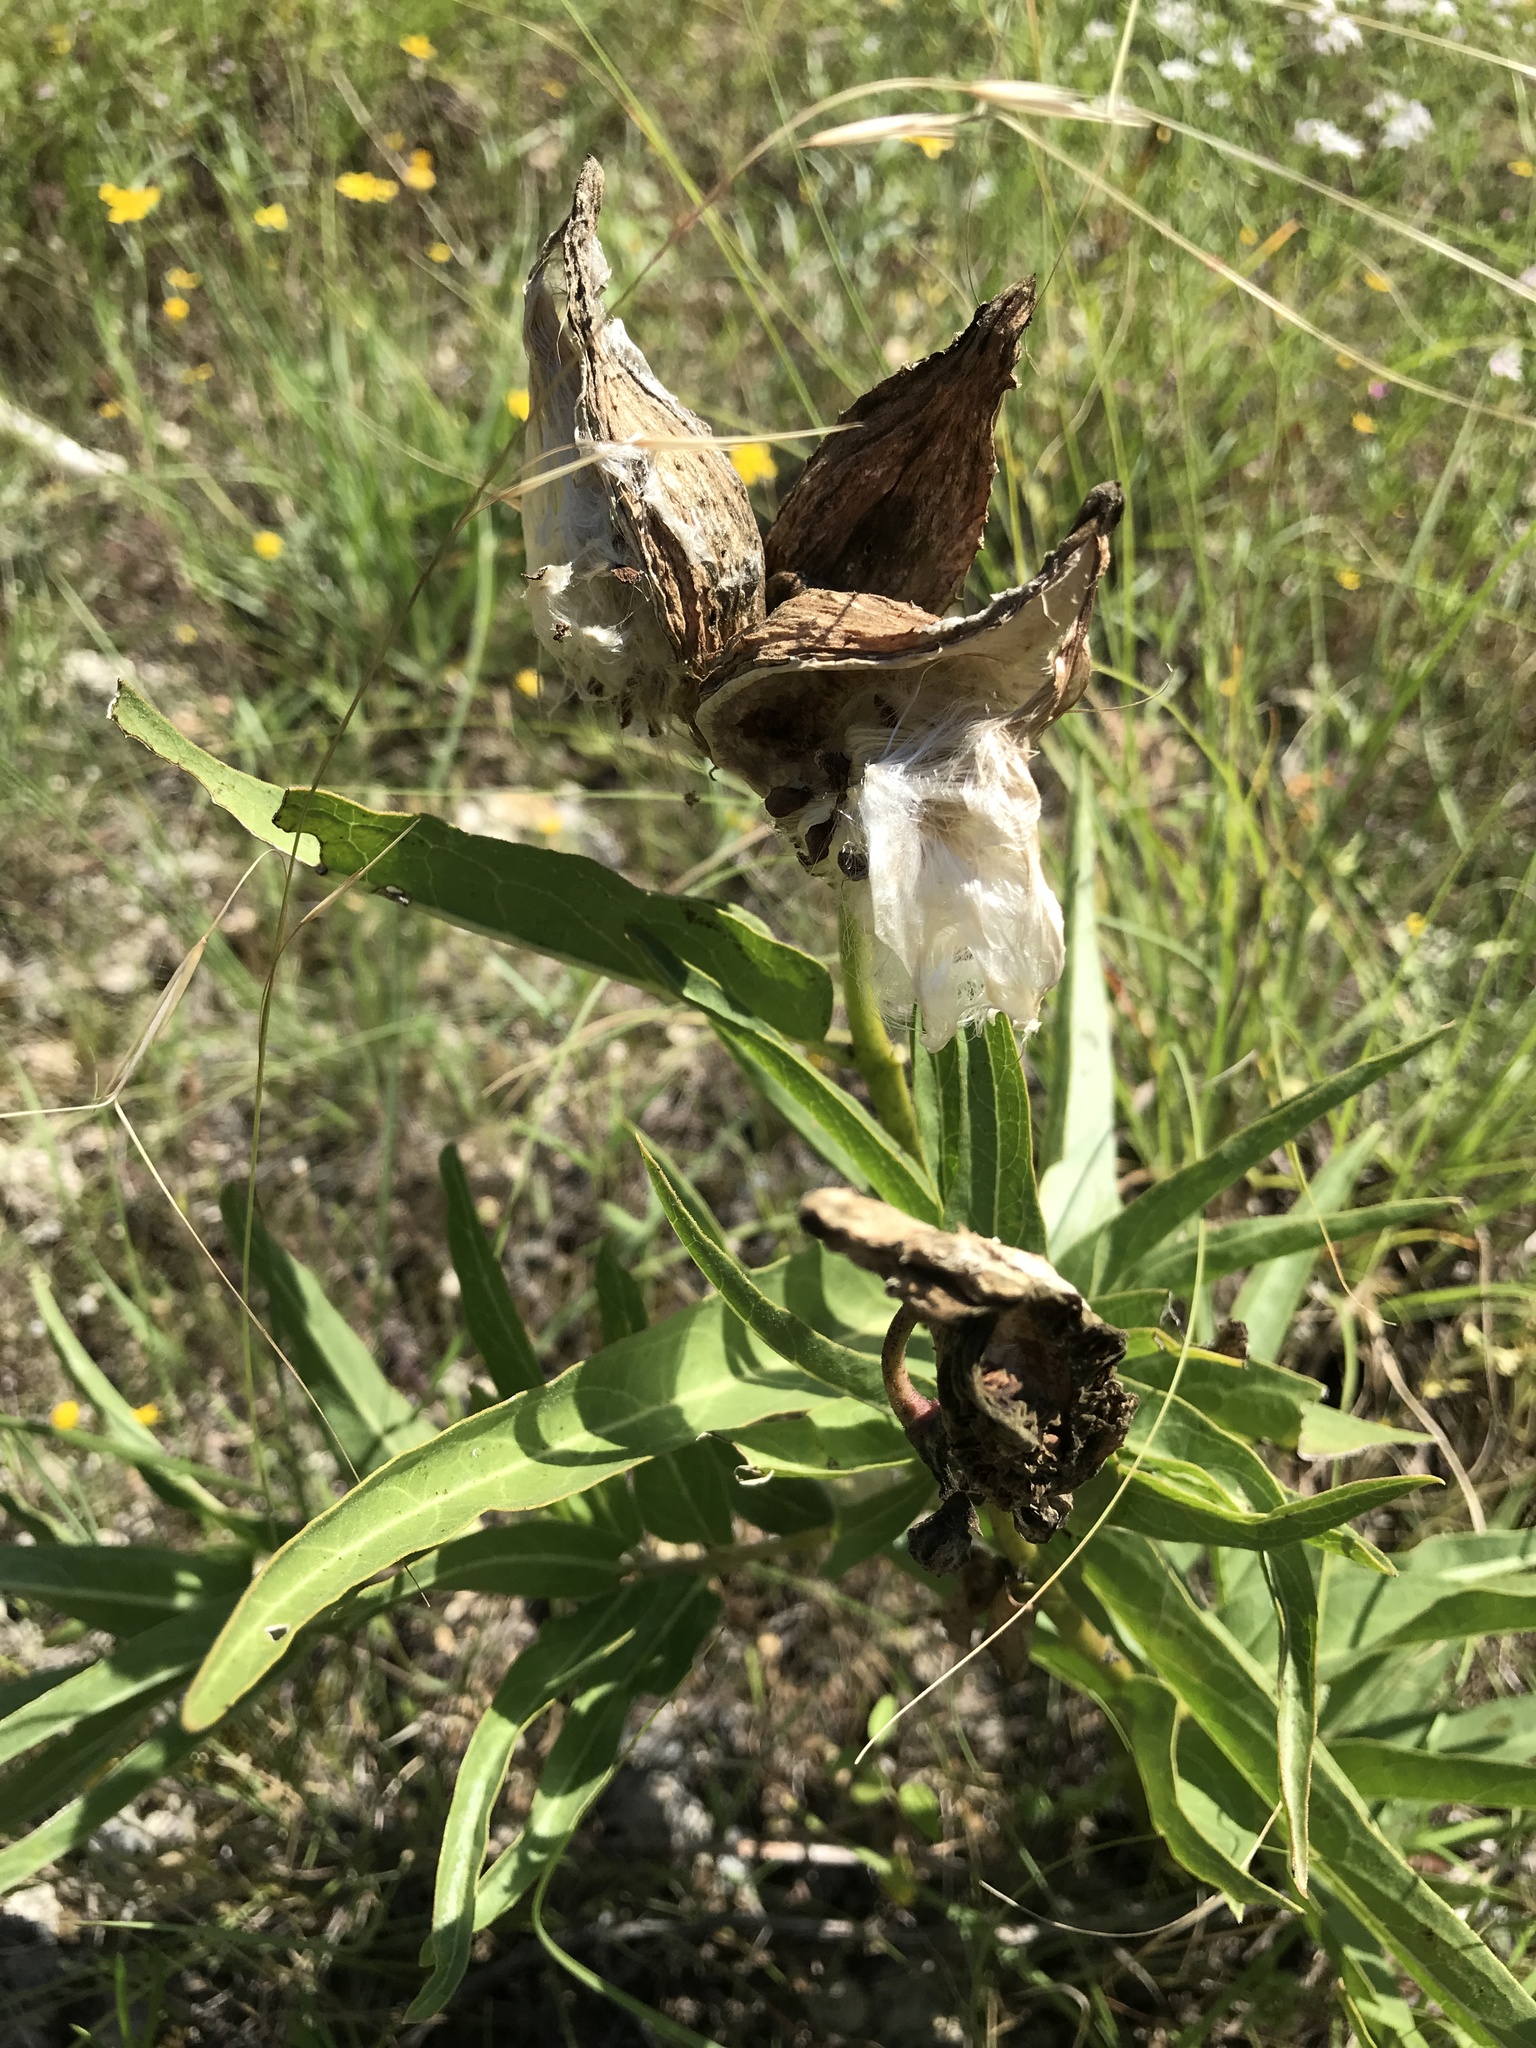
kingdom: Plantae
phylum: Tracheophyta
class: Magnoliopsida
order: Gentianales
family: Apocynaceae
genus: Asclepias
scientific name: Asclepias asperula
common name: Antelope horns
